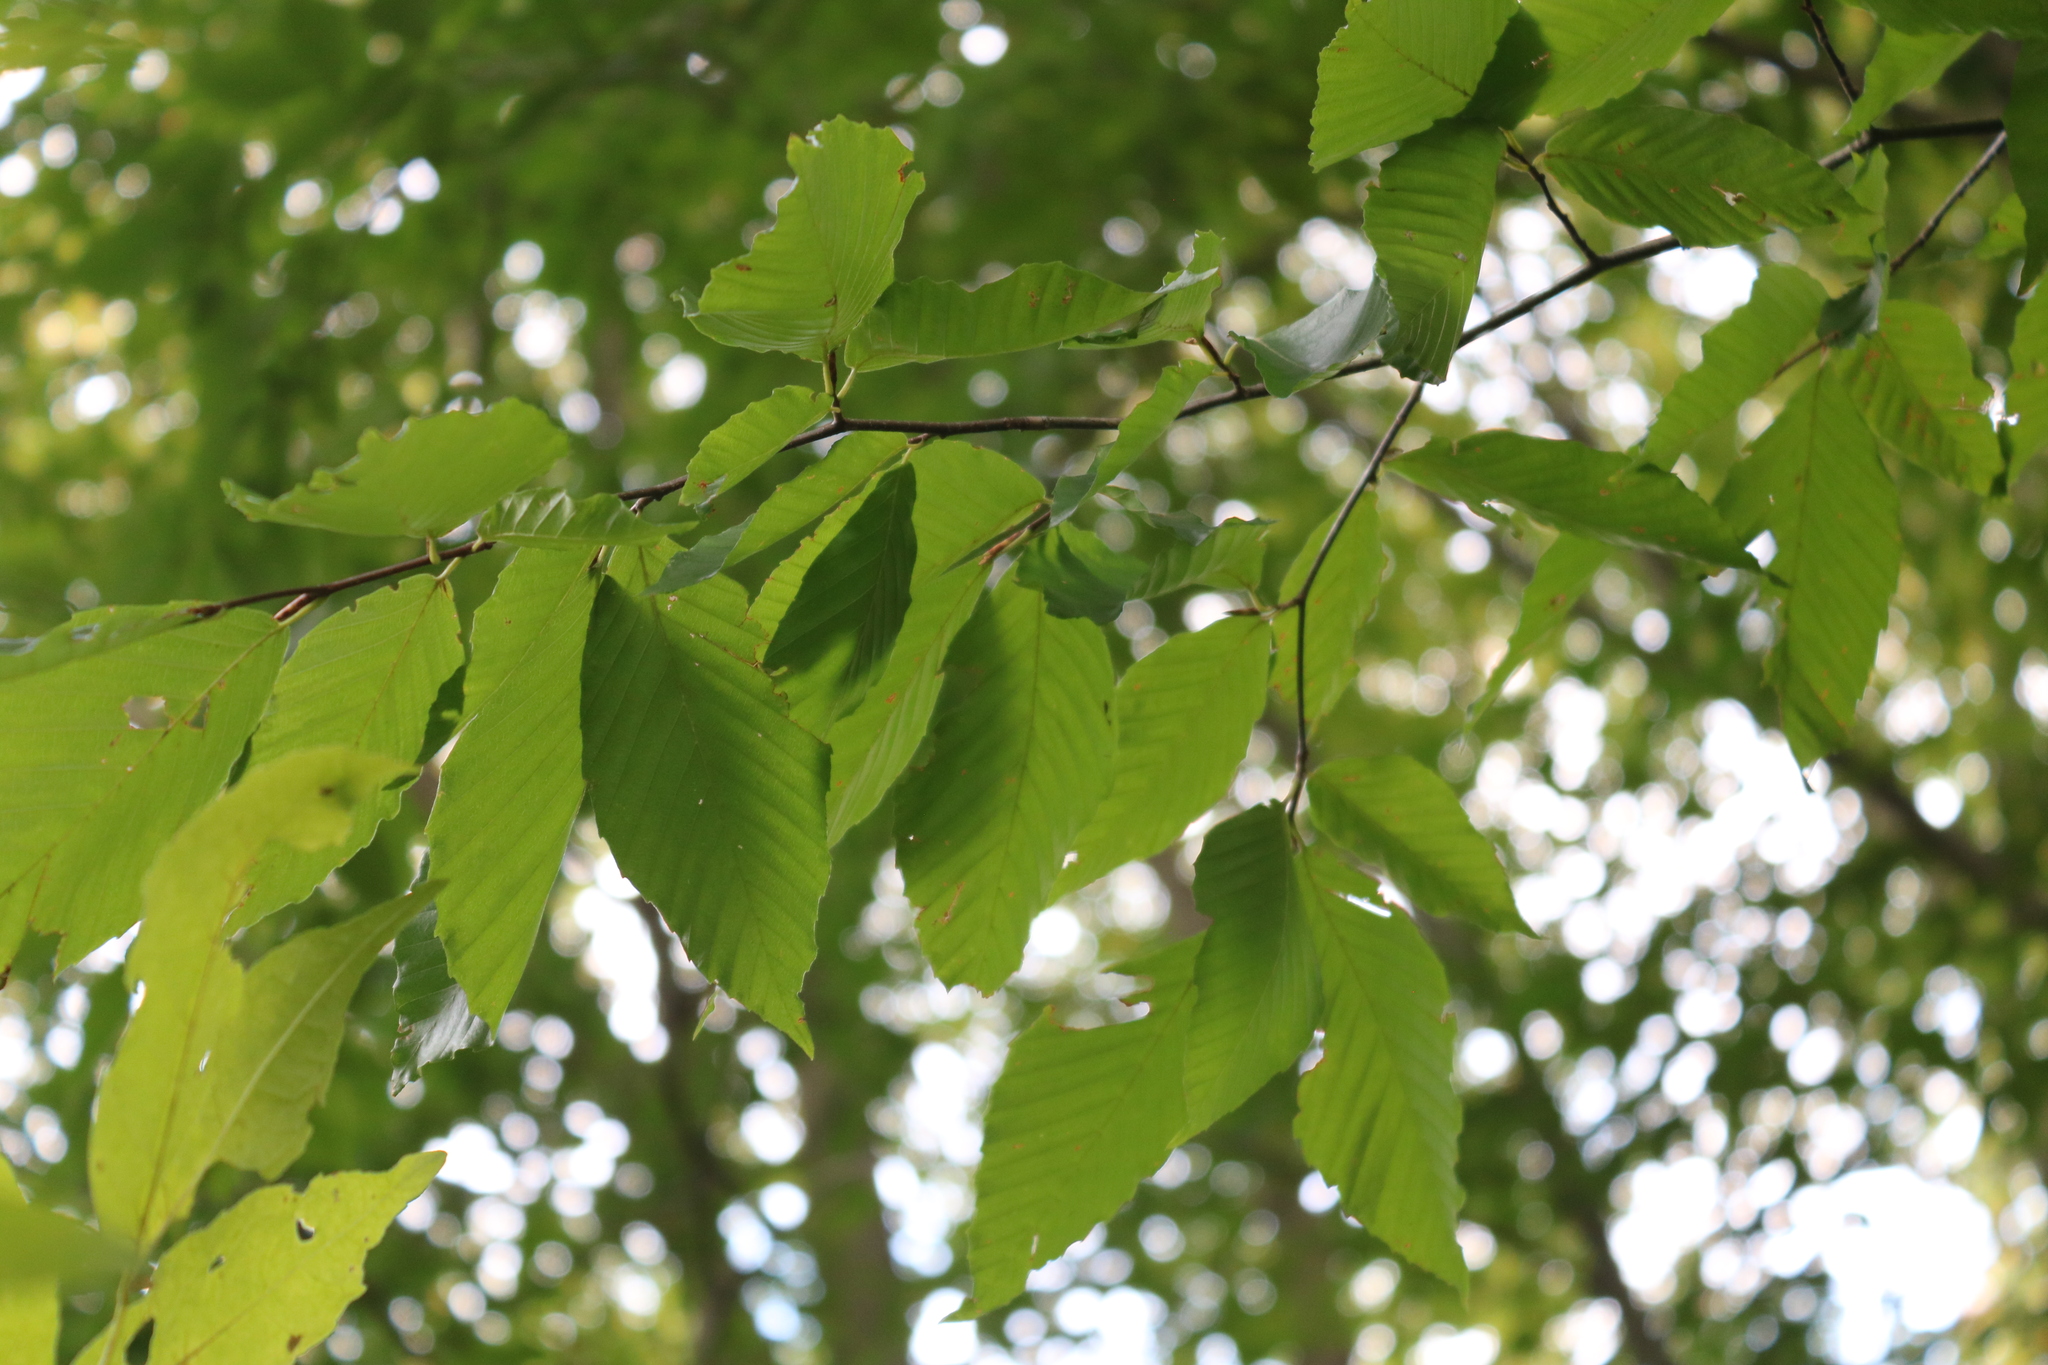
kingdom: Plantae
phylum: Tracheophyta
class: Magnoliopsida
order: Fagales
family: Fagaceae
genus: Fagus
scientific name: Fagus grandifolia
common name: American beech
